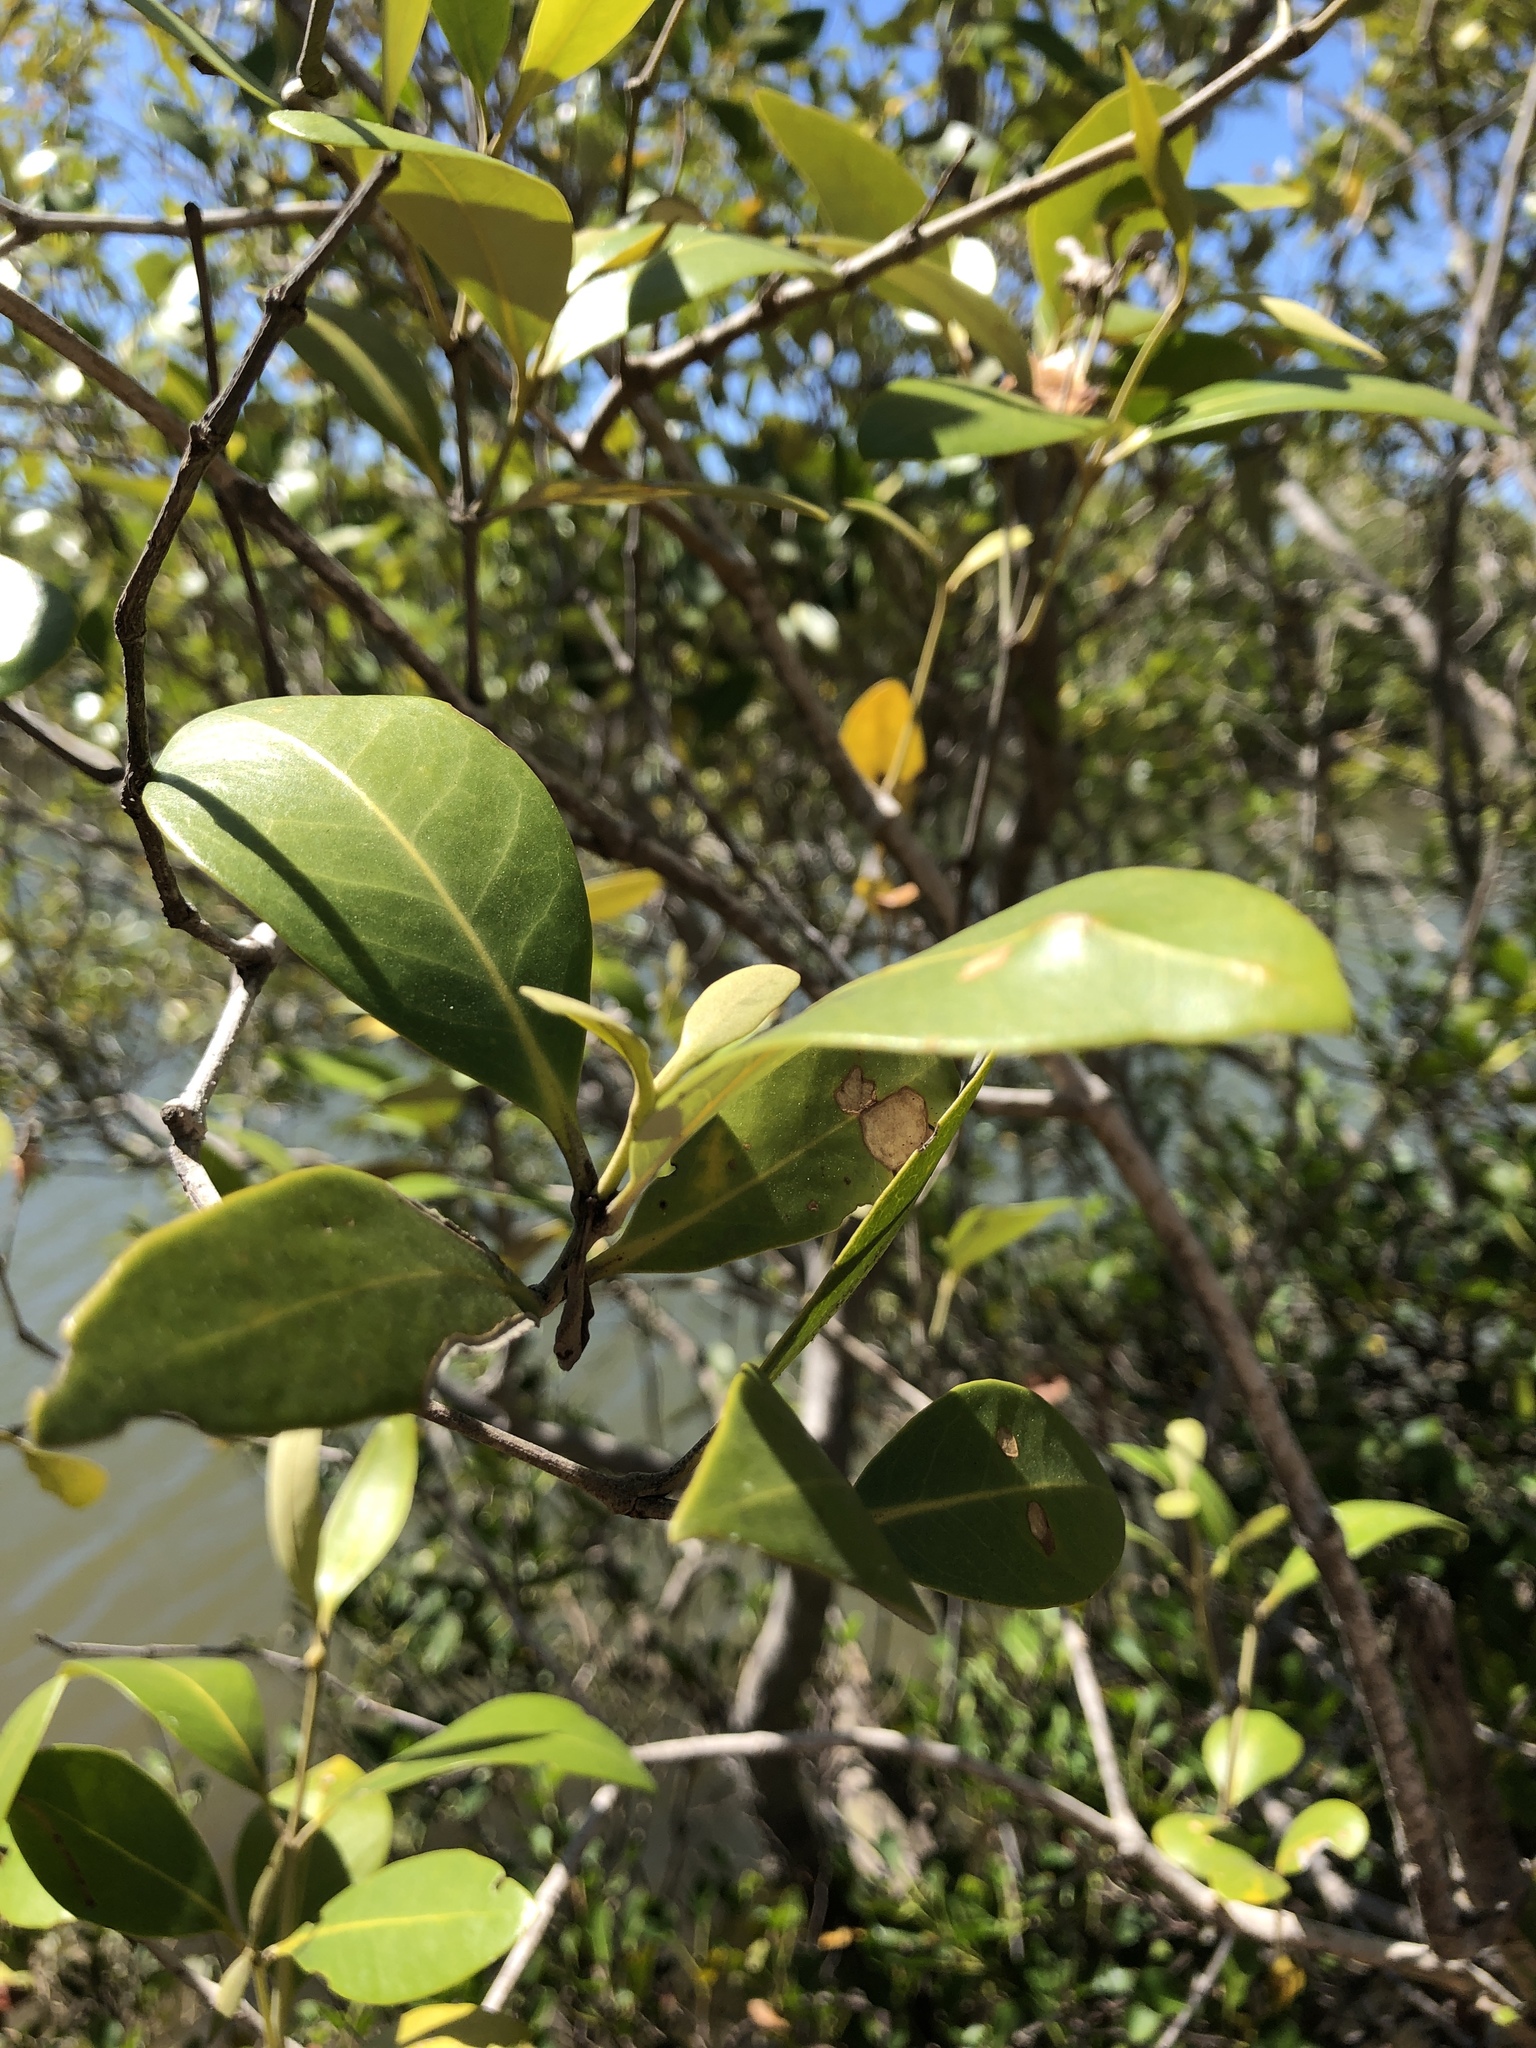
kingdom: Plantae
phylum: Tracheophyta
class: Magnoliopsida
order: Lamiales
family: Acanthaceae
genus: Avicennia
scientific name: Avicennia marina
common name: Gray mangrove
